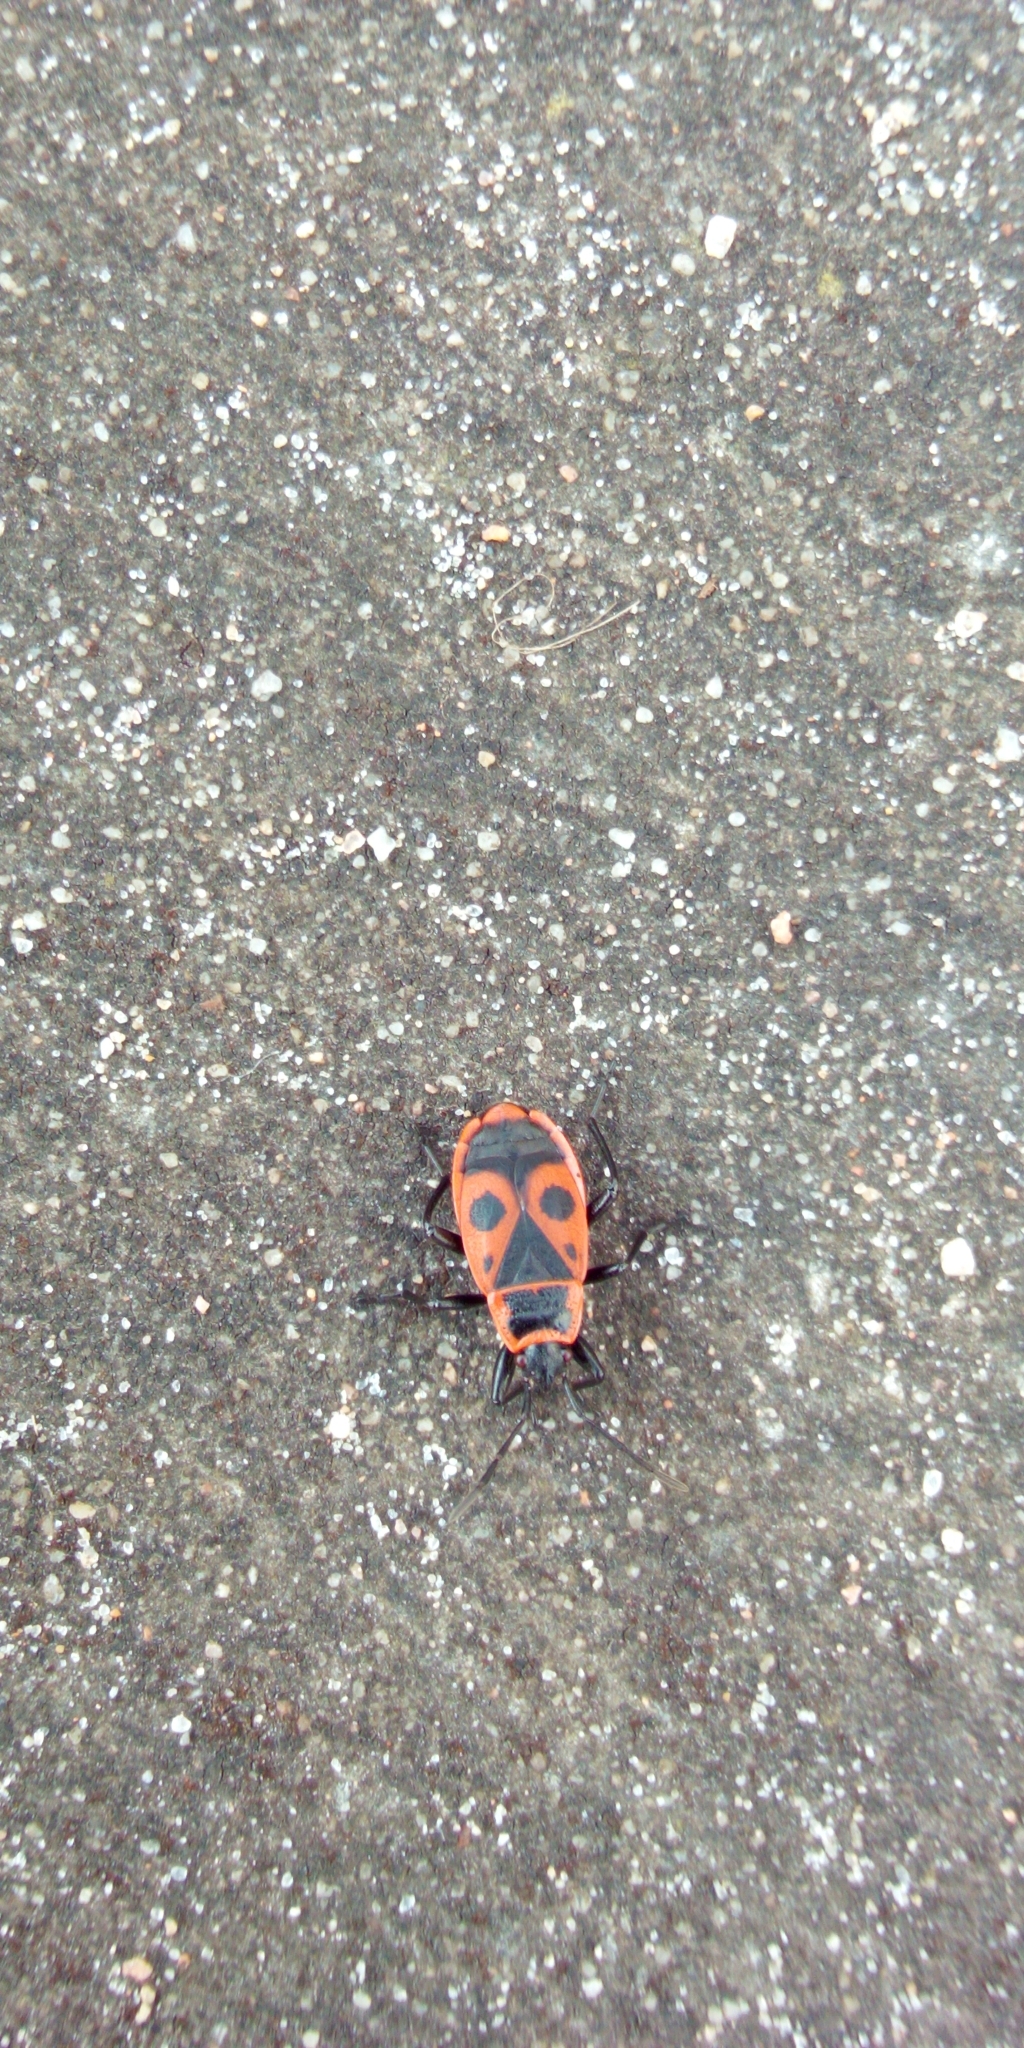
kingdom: Animalia
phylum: Arthropoda
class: Insecta
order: Hemiptera
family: Pyrrhocoridae
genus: Pyrrhocoris
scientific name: Pyrrhocoris apterus
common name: Firebug
